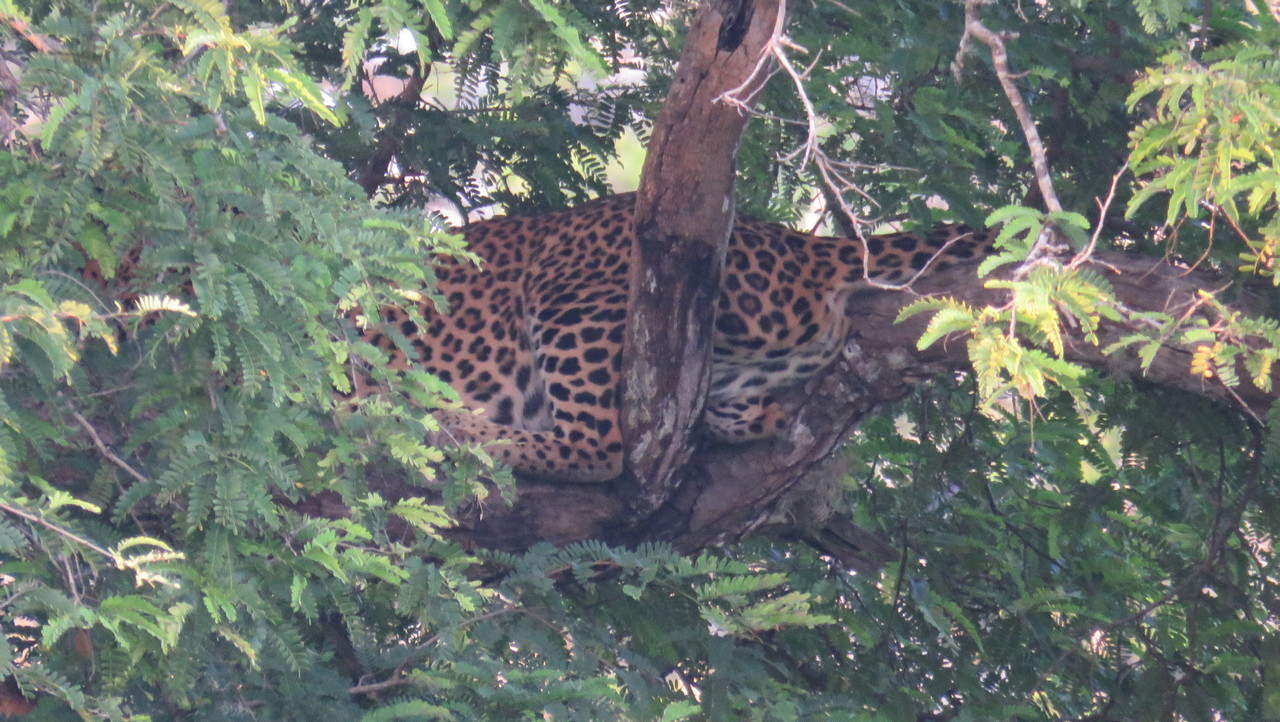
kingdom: Animalia
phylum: Chordata
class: Mammalia
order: Carnivora
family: Felidae
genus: Panthera
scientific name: Panthera pardus
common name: Leopard
